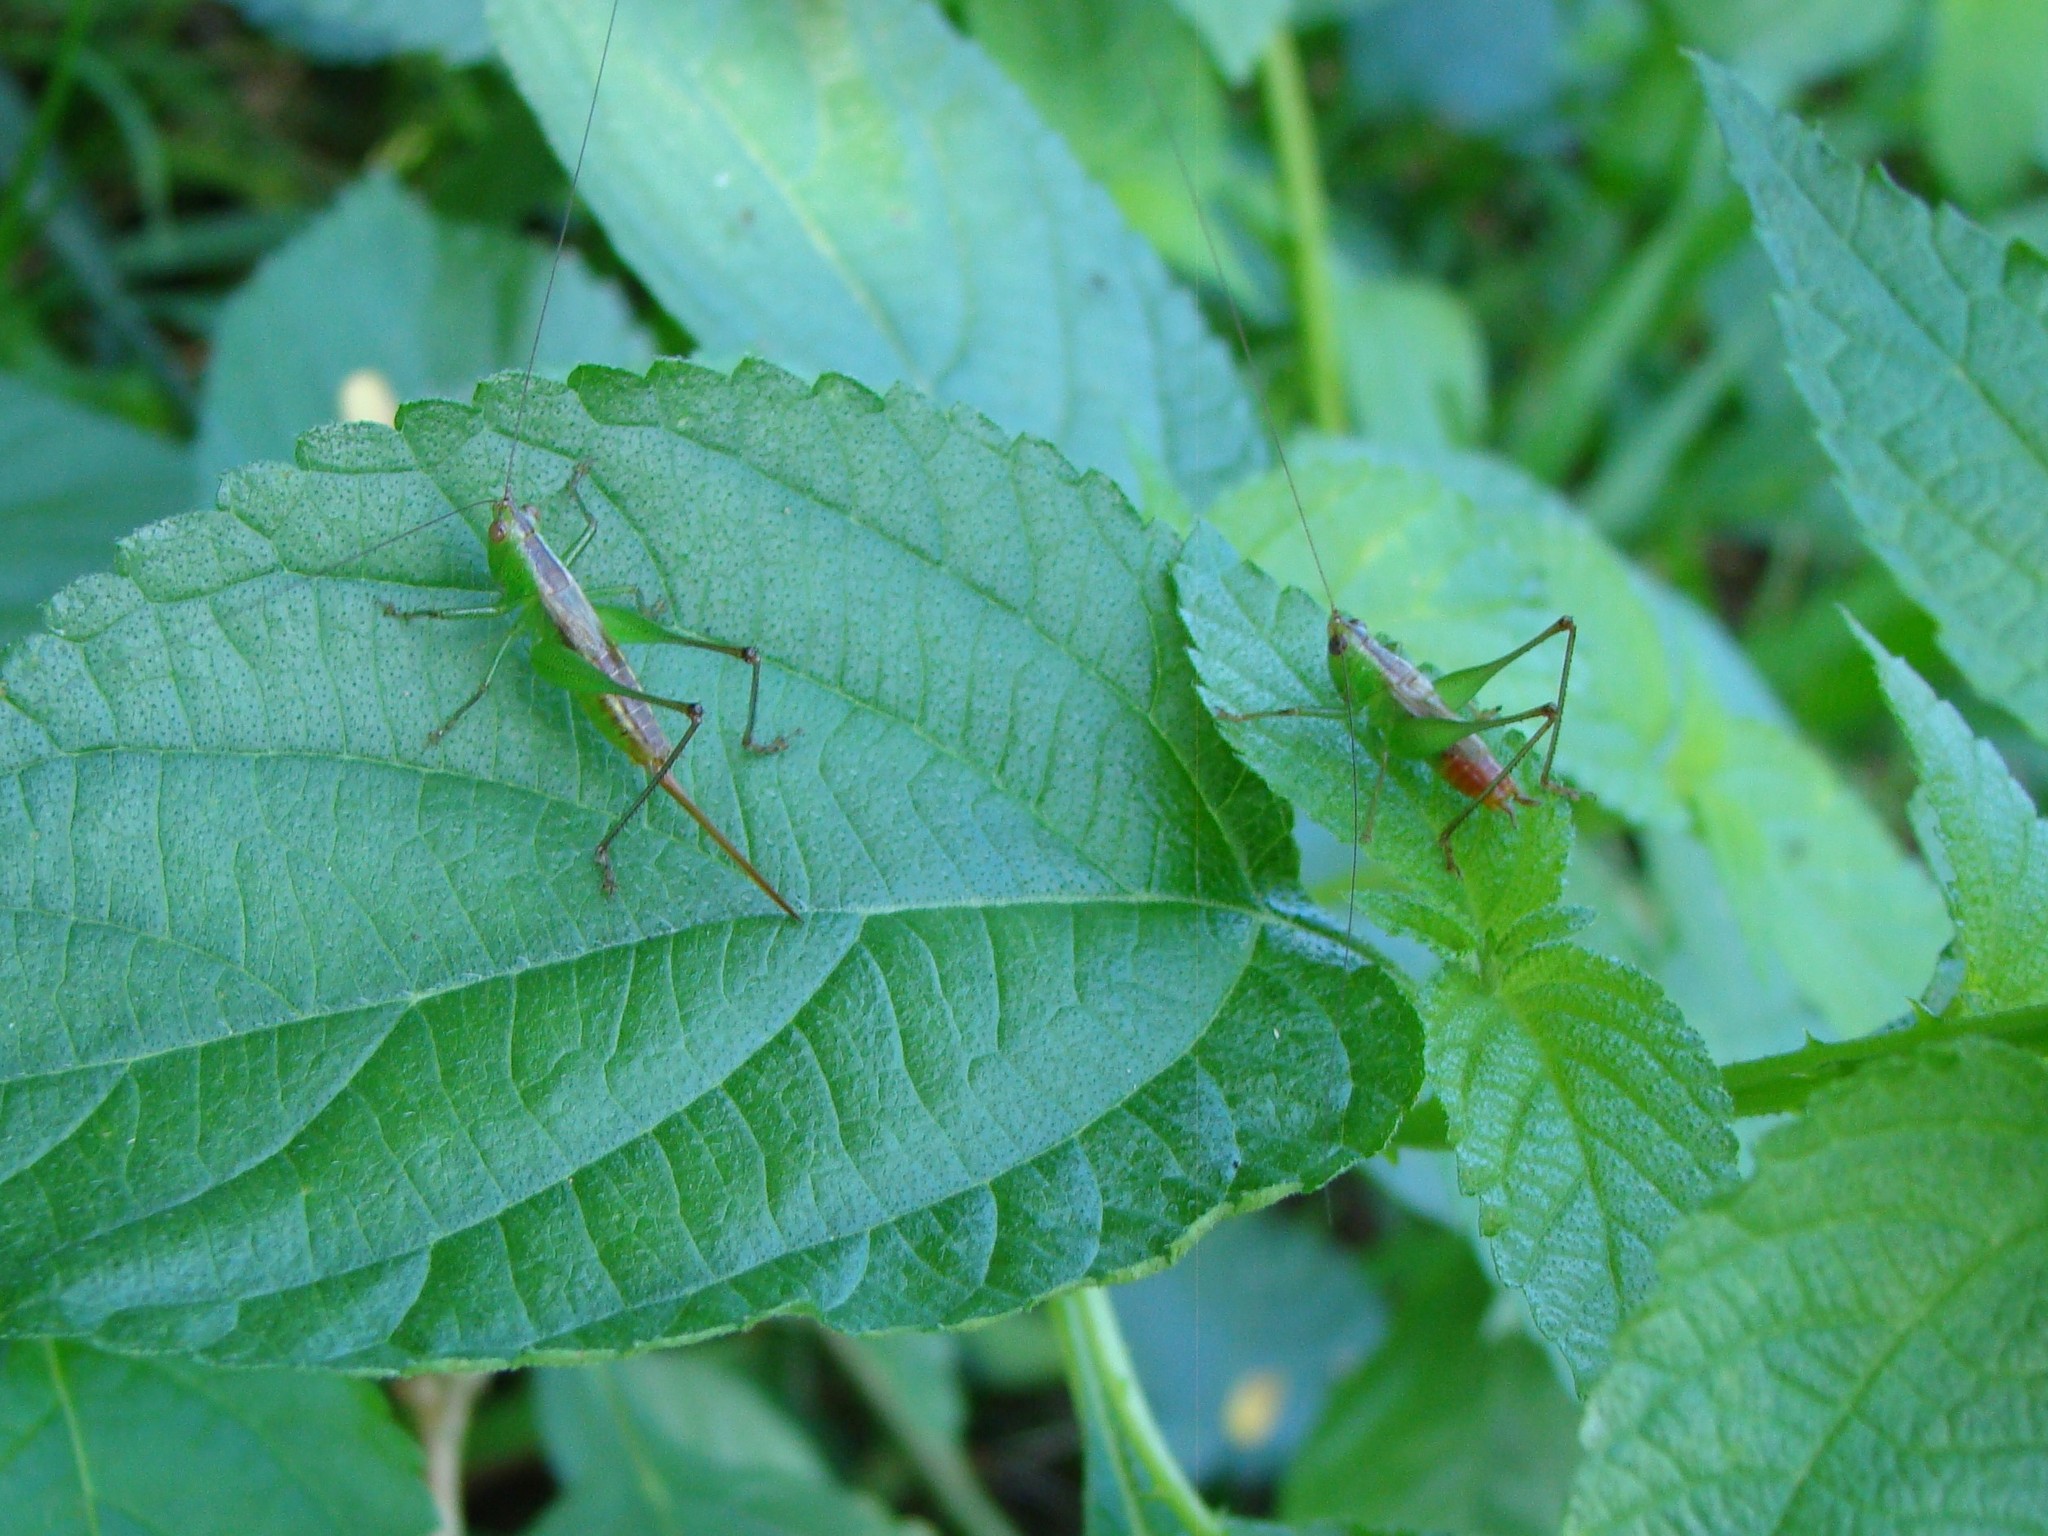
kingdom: Animalia
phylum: Arthropoda
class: Insecta
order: Orthoptera
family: Tettigoniidae
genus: Conocephalus
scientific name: Conocephalus saltator
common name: Katydid
